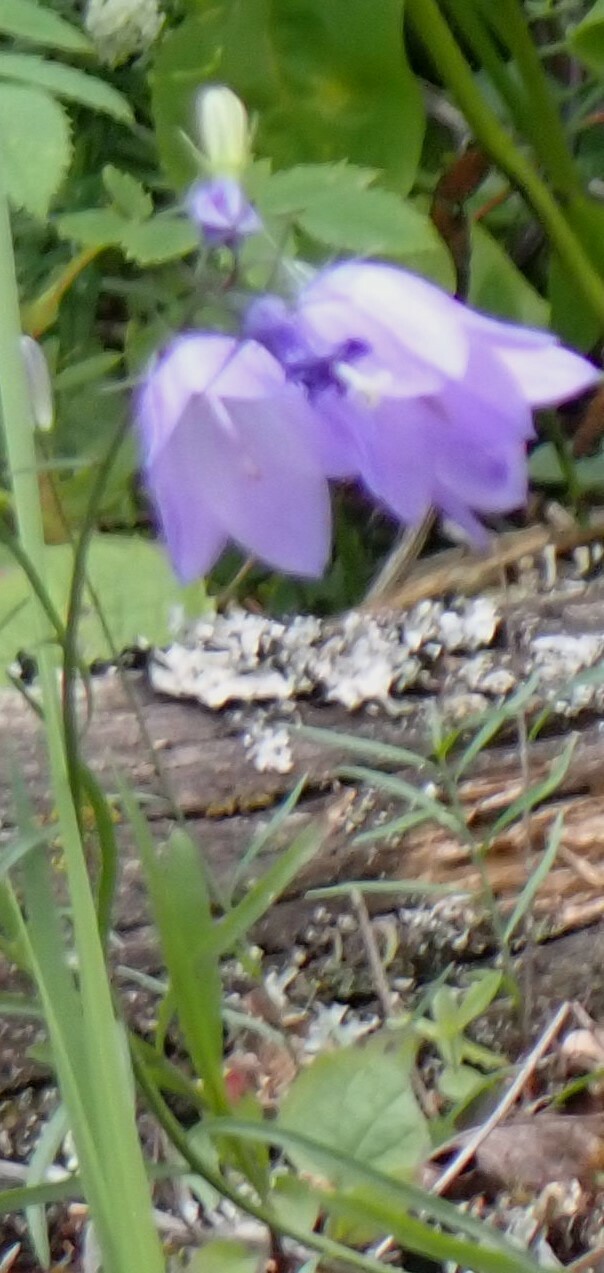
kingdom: Plantae
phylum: Tracheophyta
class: Magnoliopsida
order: Asterales
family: Campanulaceae
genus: Campanula
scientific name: Campanula alaskana
